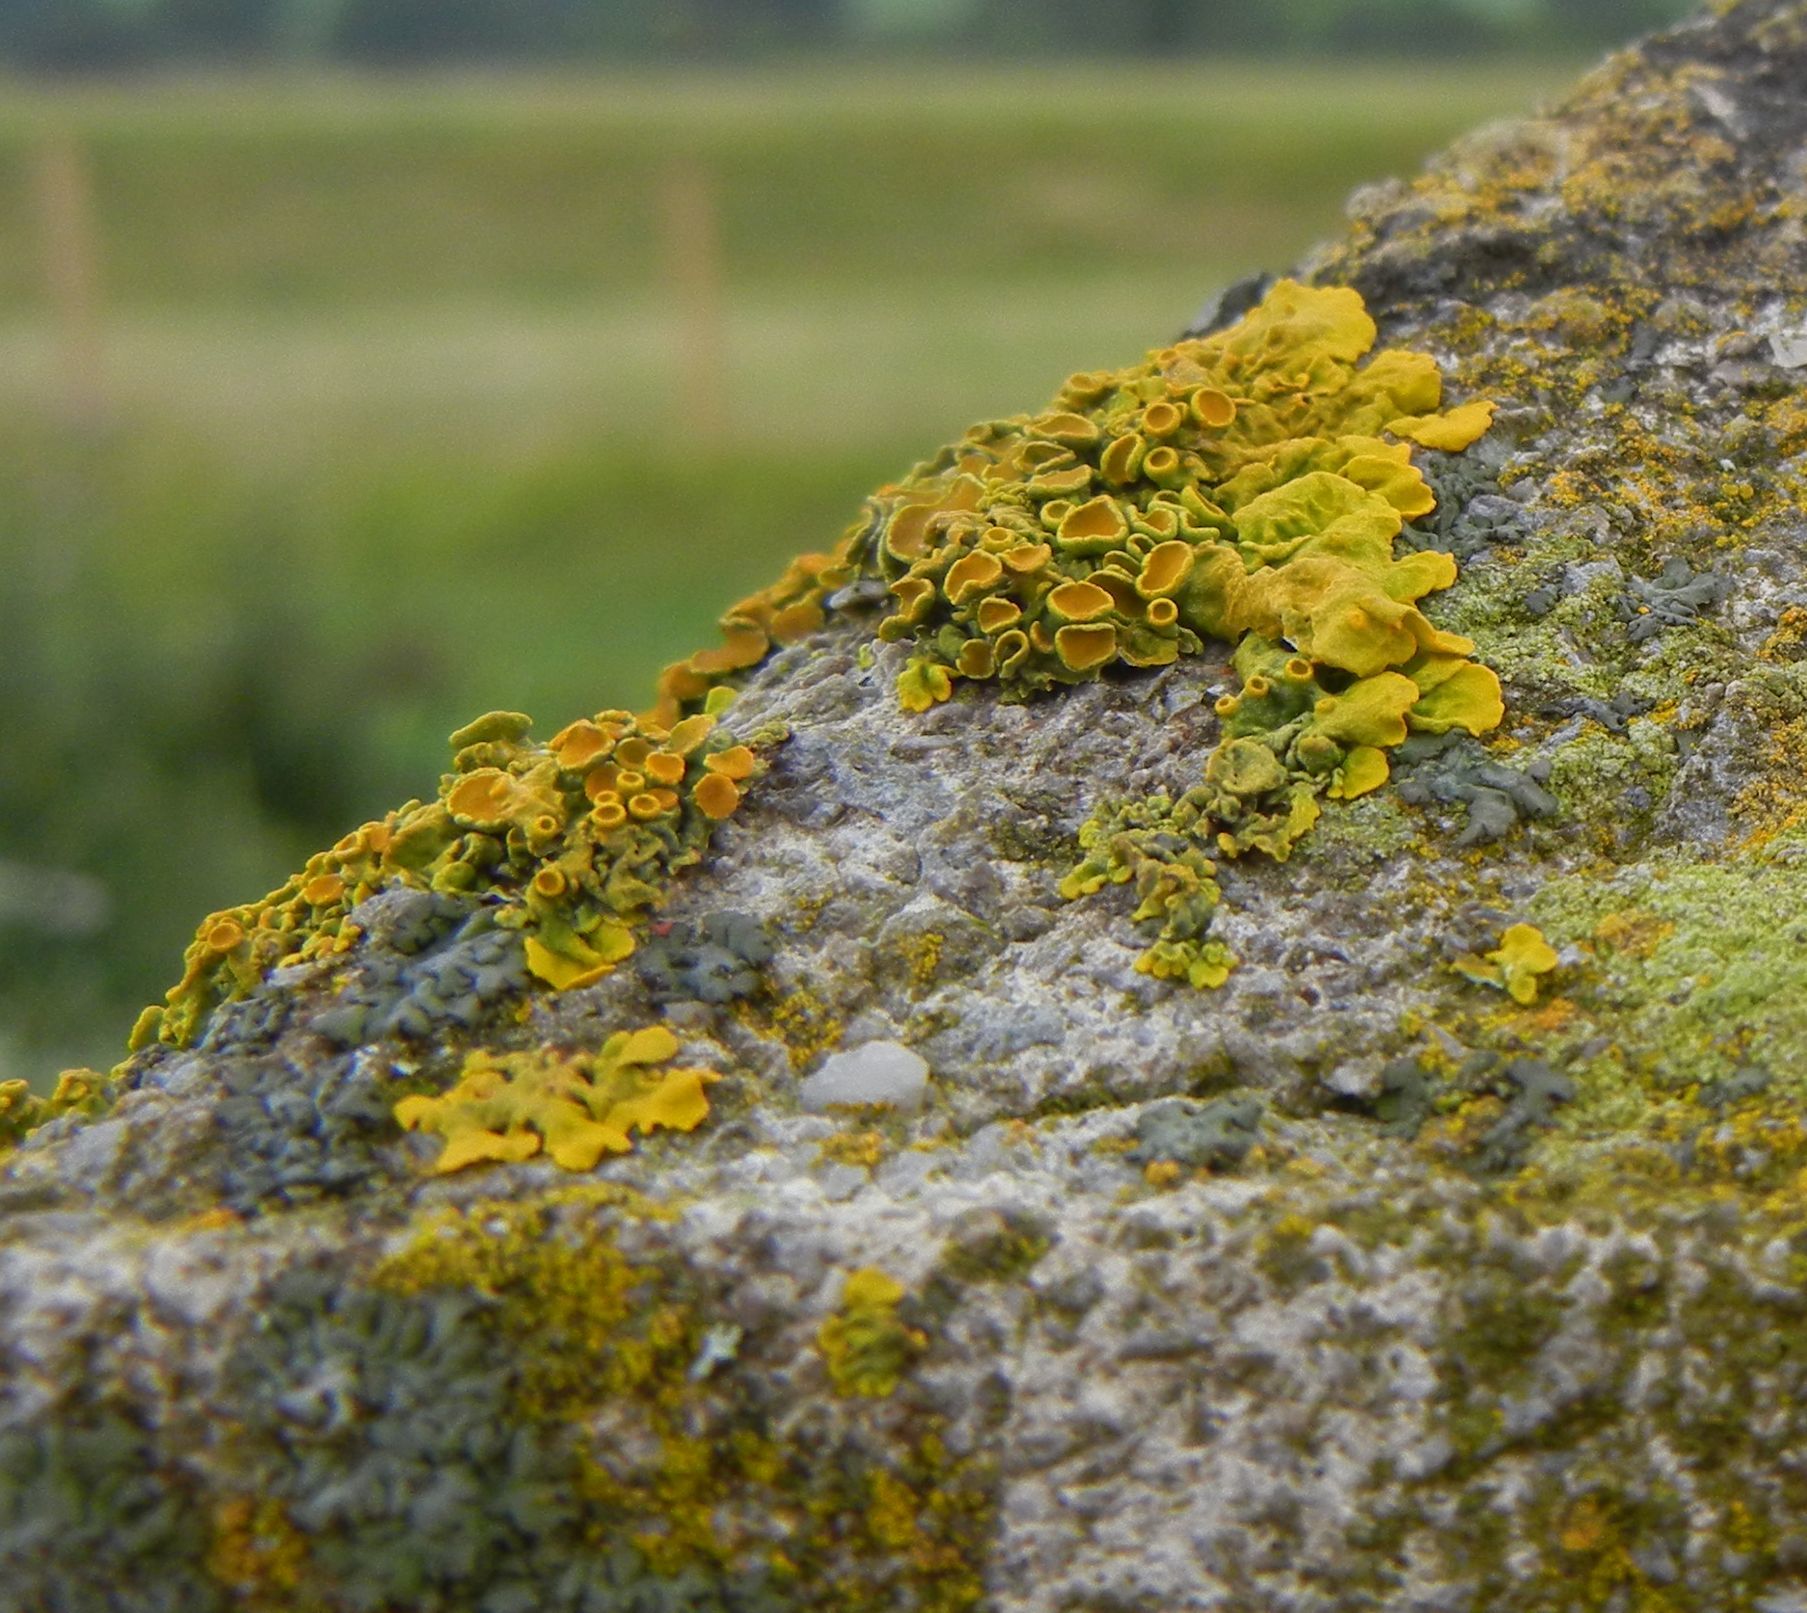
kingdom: Fungi
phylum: Ascomycota
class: Lecanoromycetes
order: Teloschistales
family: Teloschistaceae
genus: Xanthoria
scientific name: Xanthoria parietina
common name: Common orange lichen
